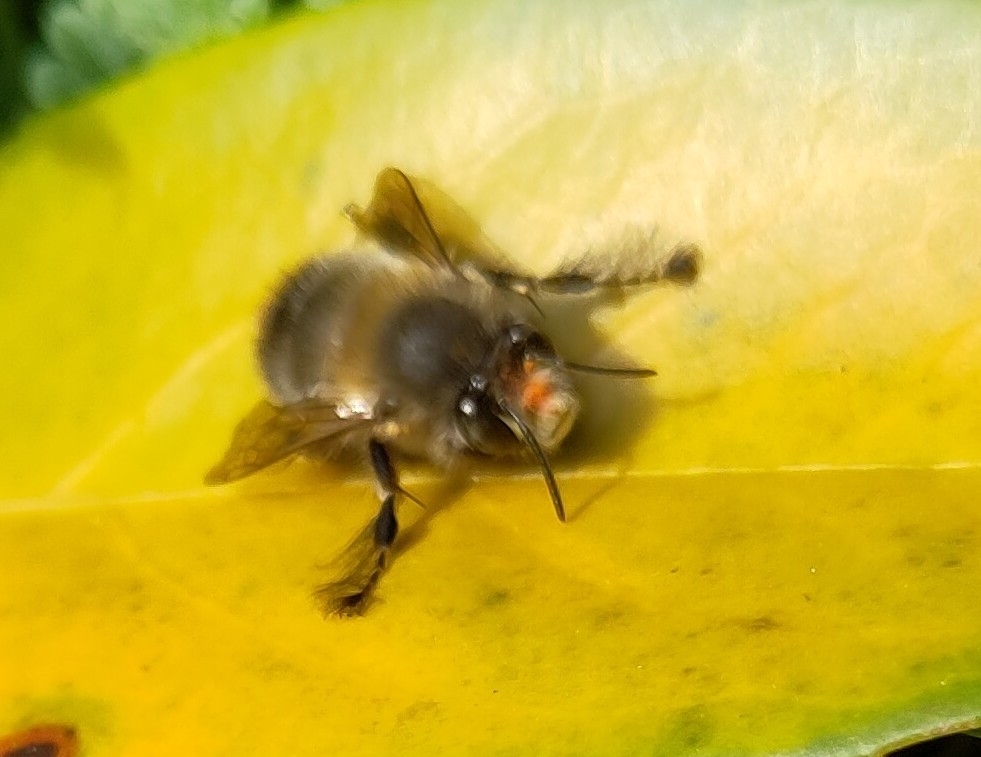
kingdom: Animalia
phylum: Arthropoda
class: Insecta
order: Hymenoptera
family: Apidae
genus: Anthophora
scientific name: Anthophora plumipes
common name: Hairy-footed flower bee
